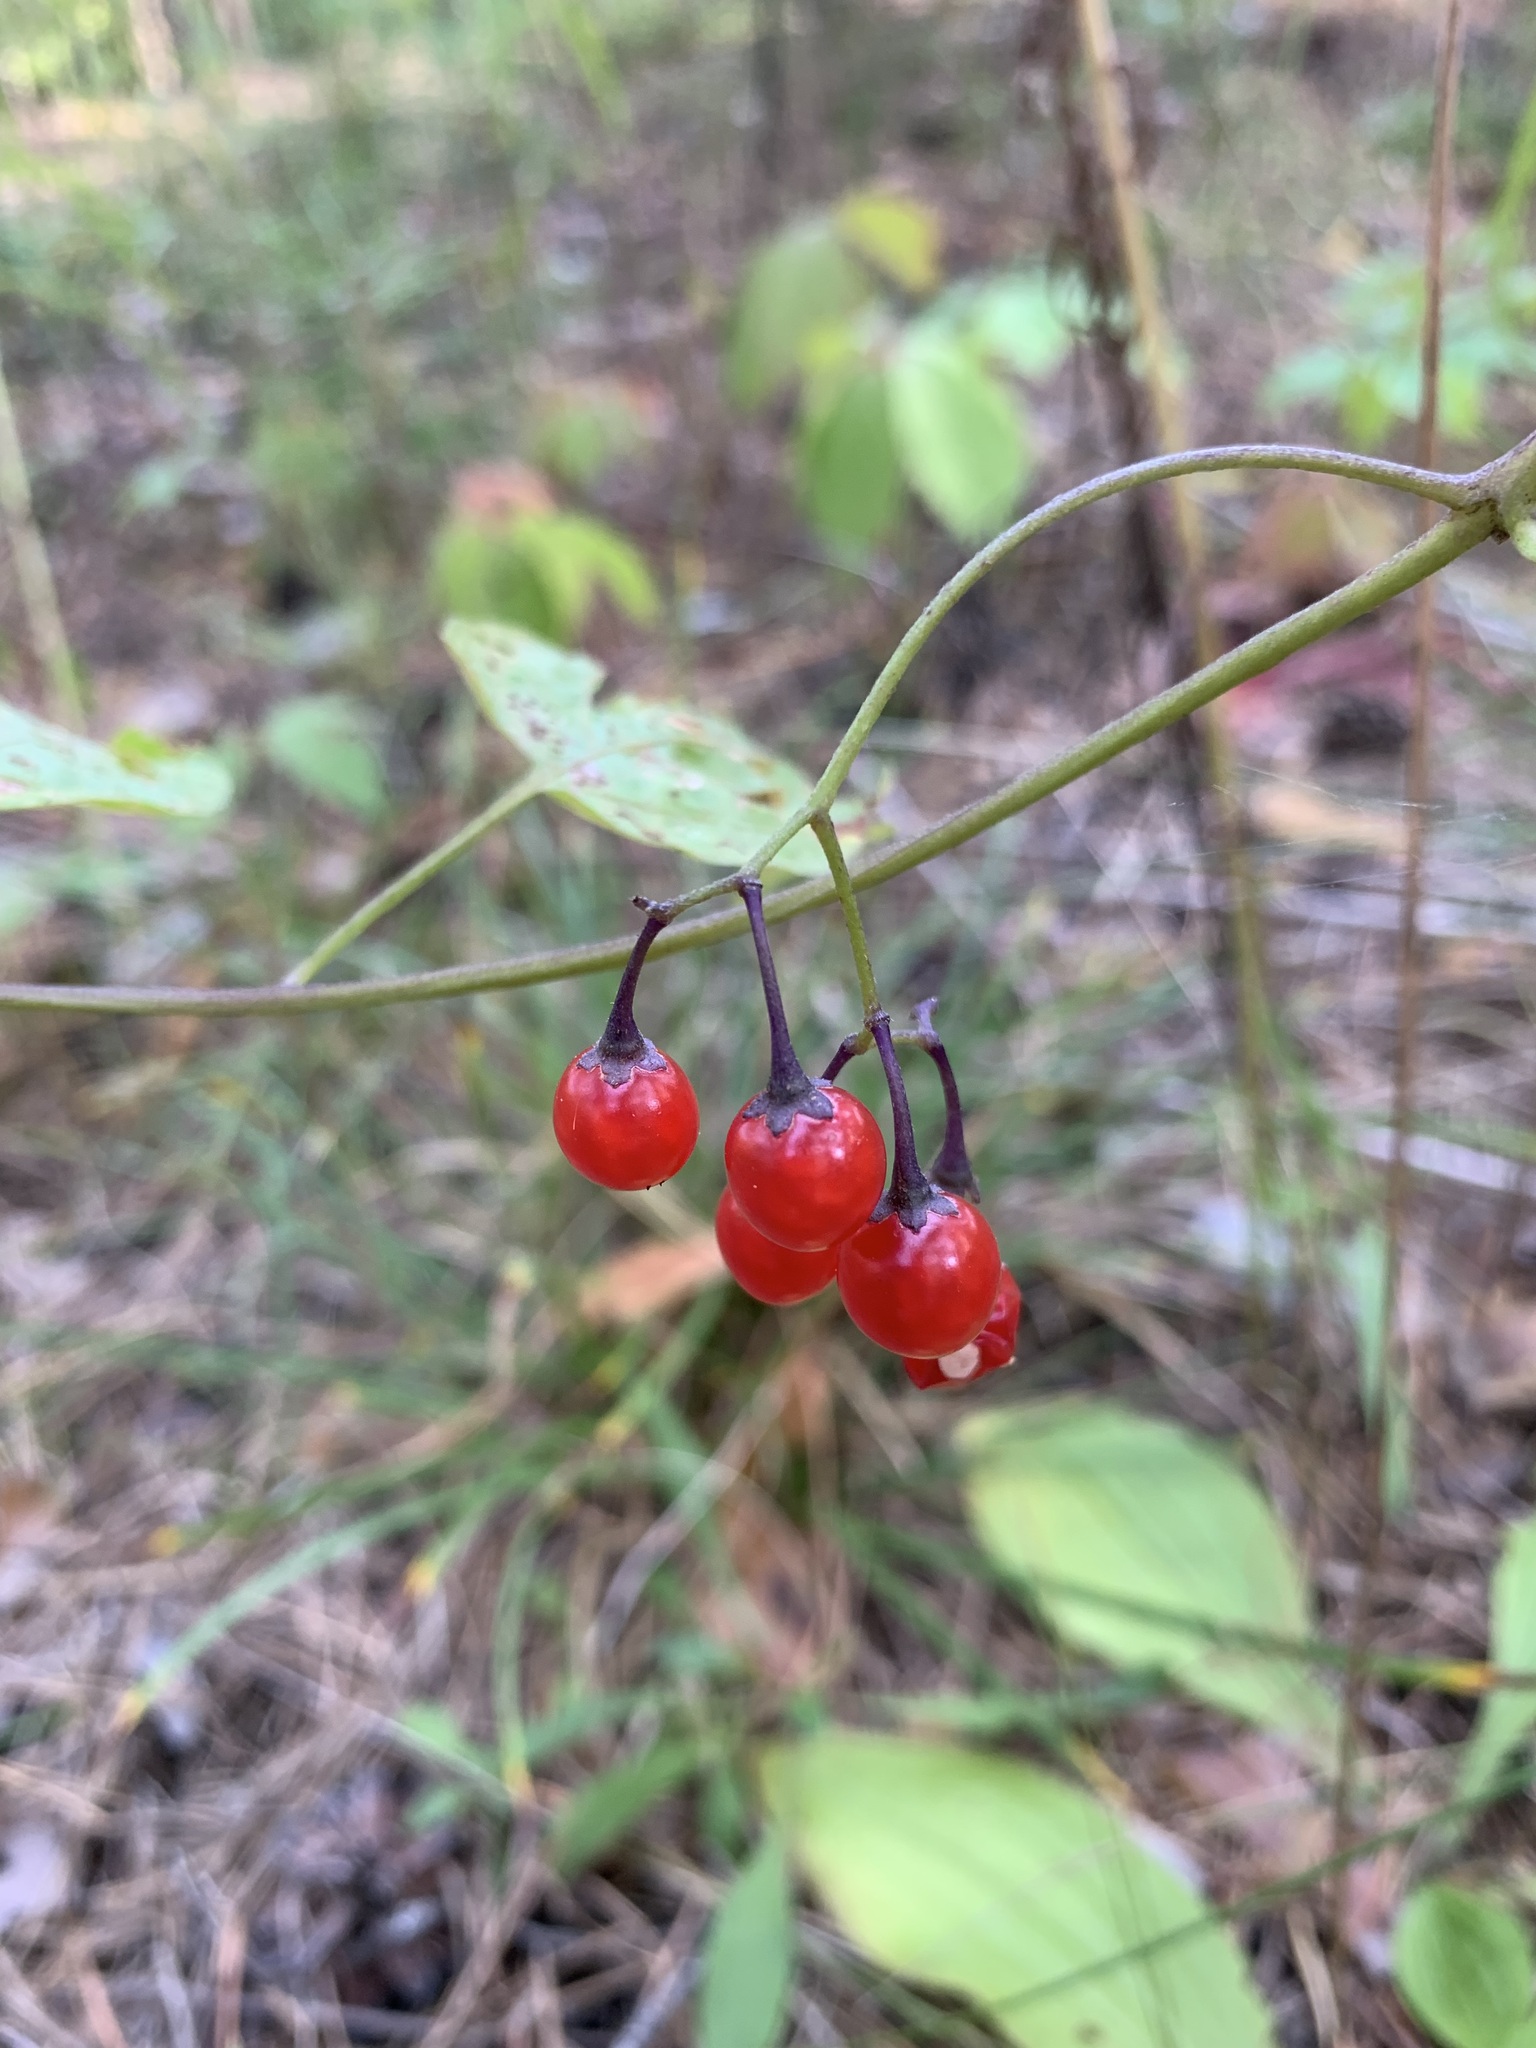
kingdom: Plantae
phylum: Tracheophyta
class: Magnoliopsida
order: Solanales
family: Solanaceae
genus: Solanum
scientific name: Solanum dulcamara
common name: Climbing nightshade
